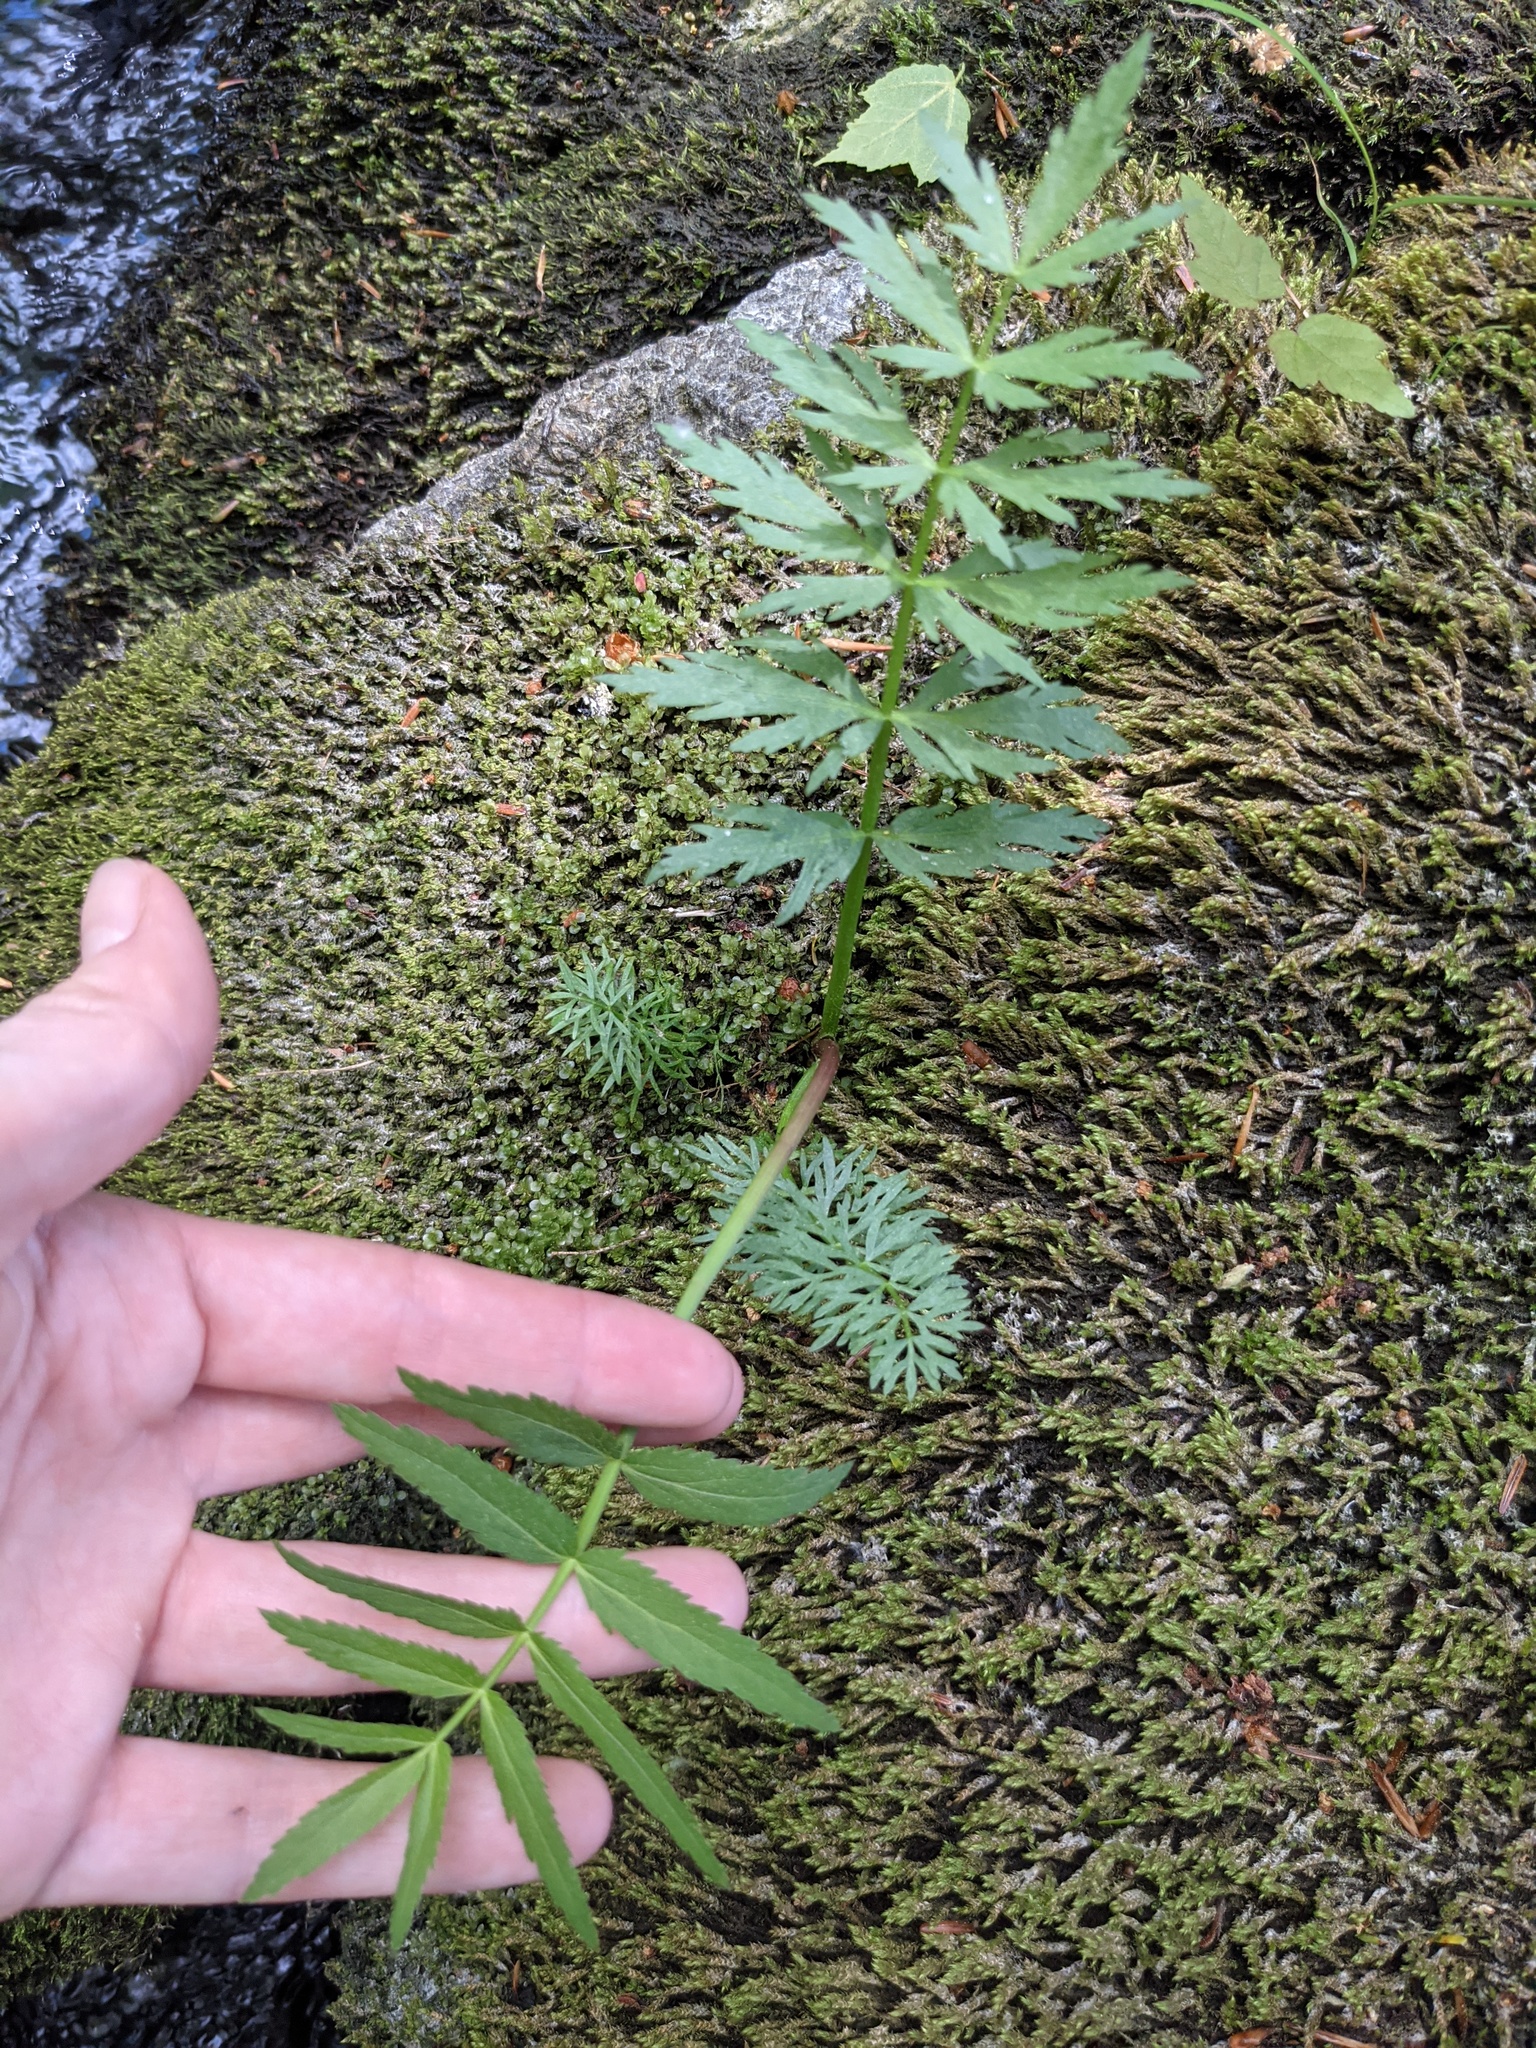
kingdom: Plantae
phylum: Tracheophyta
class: Magnoliopsida
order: Apiales
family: Apiaceae
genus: Sium
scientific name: Sium suave
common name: Hemlock water-parsnip
